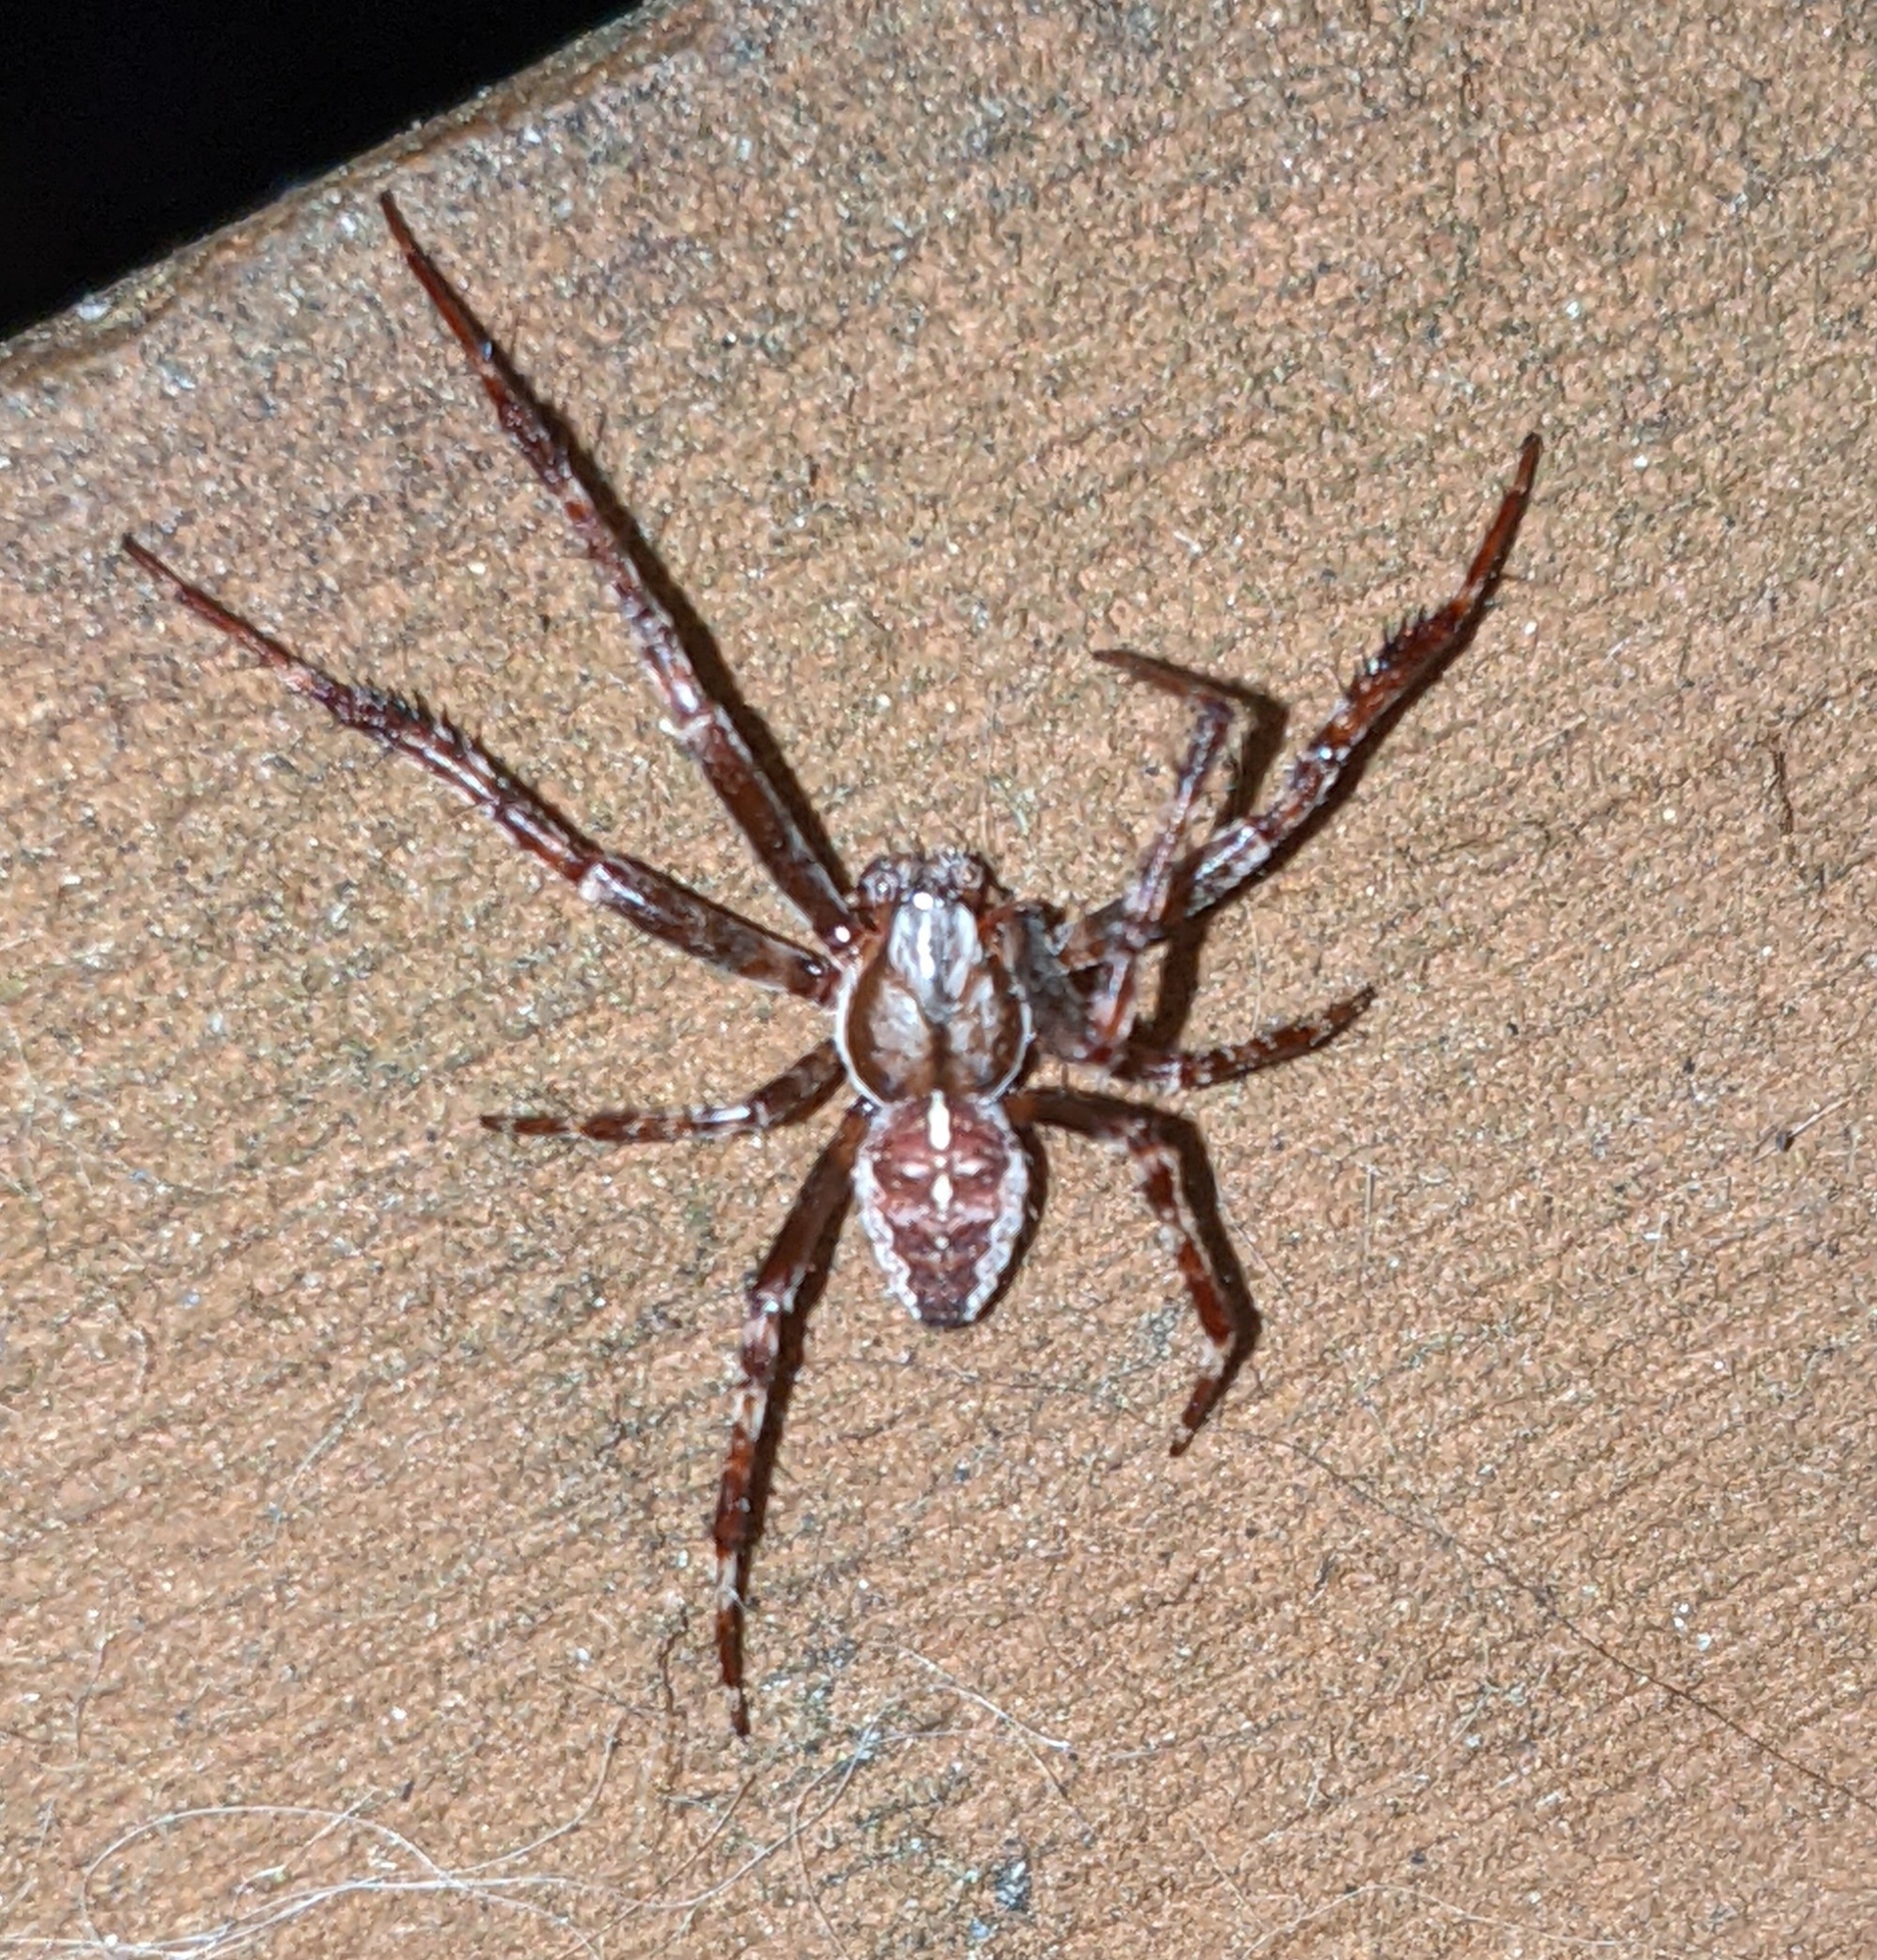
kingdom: Animalia
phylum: Arthropoda
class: Arachnida
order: Araneae
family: Araneidae
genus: Araneus
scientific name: Araneus diadematus
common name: Cross orbweaver
